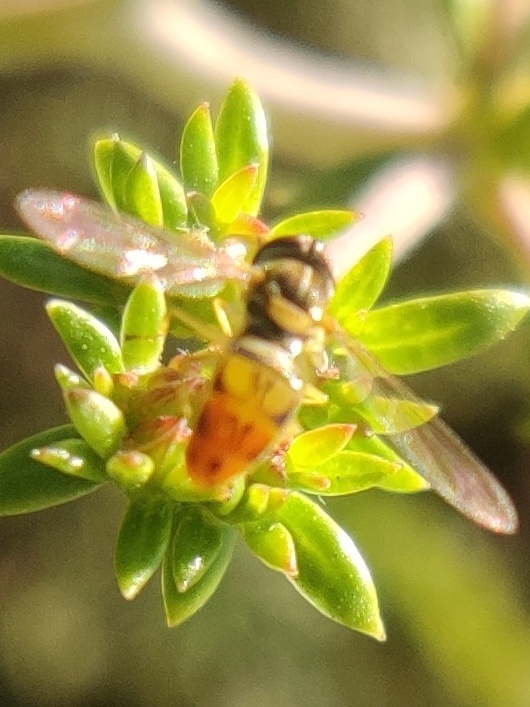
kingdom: Animalia
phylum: Arthropoda
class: Insecta
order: Diptera
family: Syrphidae
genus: Toxomerus
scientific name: Toxomerus marginatus
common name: Syrphid fly
